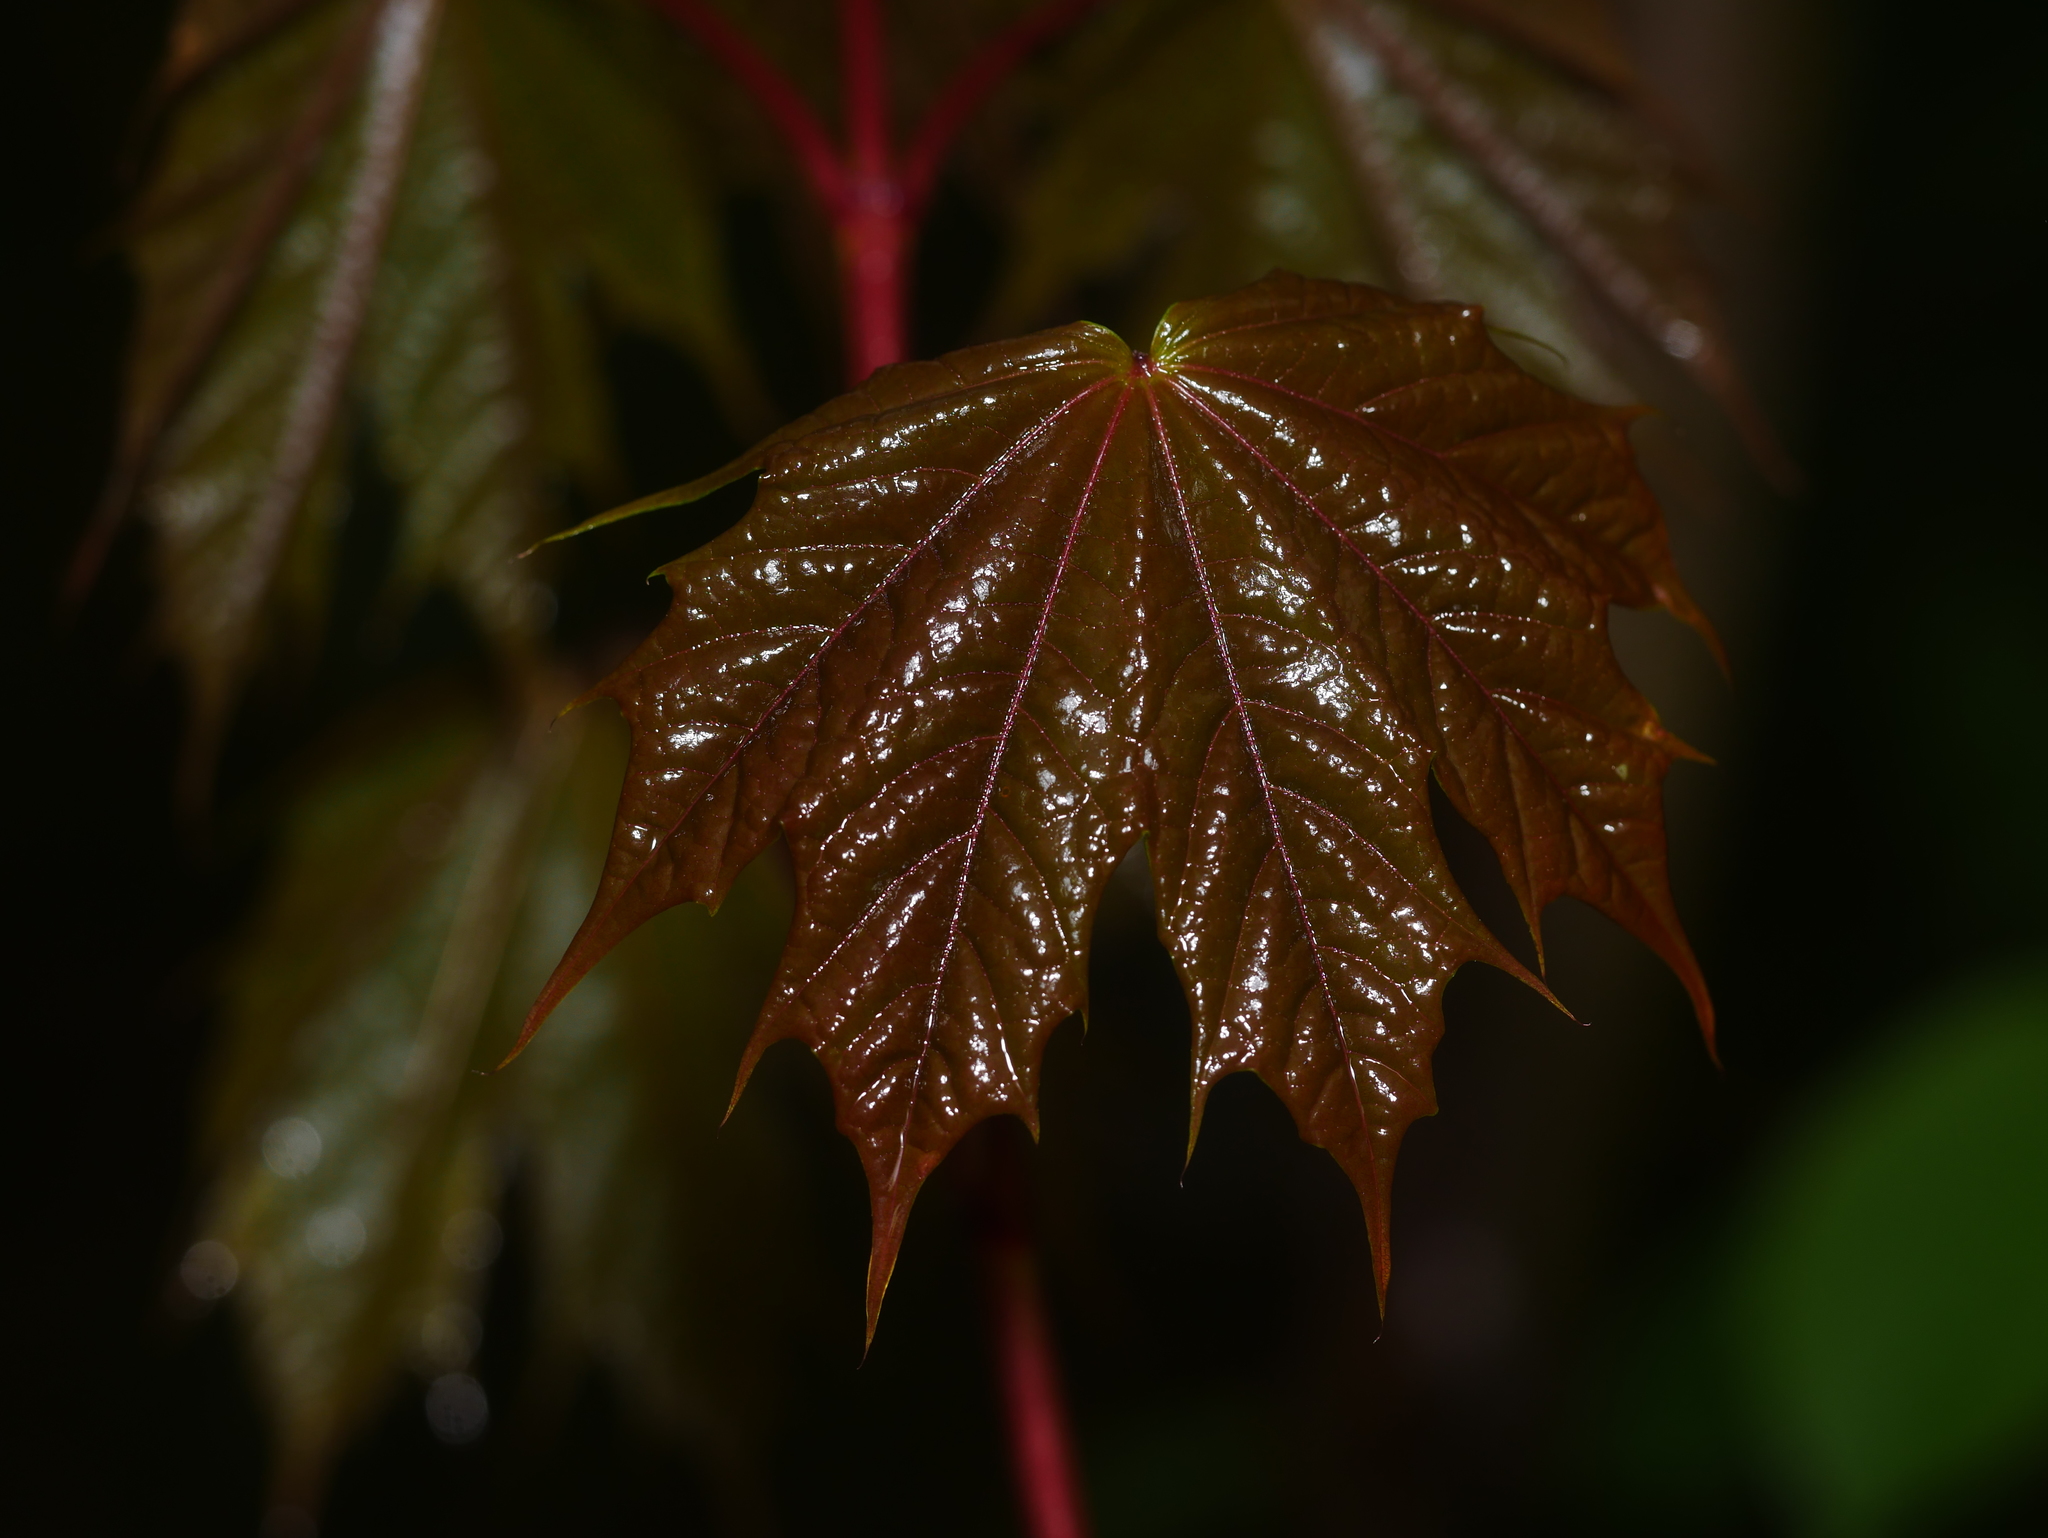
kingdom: Plantae
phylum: Tracheophyta
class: Magnoliopsida
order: Sapindales
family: Sapindaceae
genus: Acer
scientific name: Acer platanoides
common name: Norway maple
